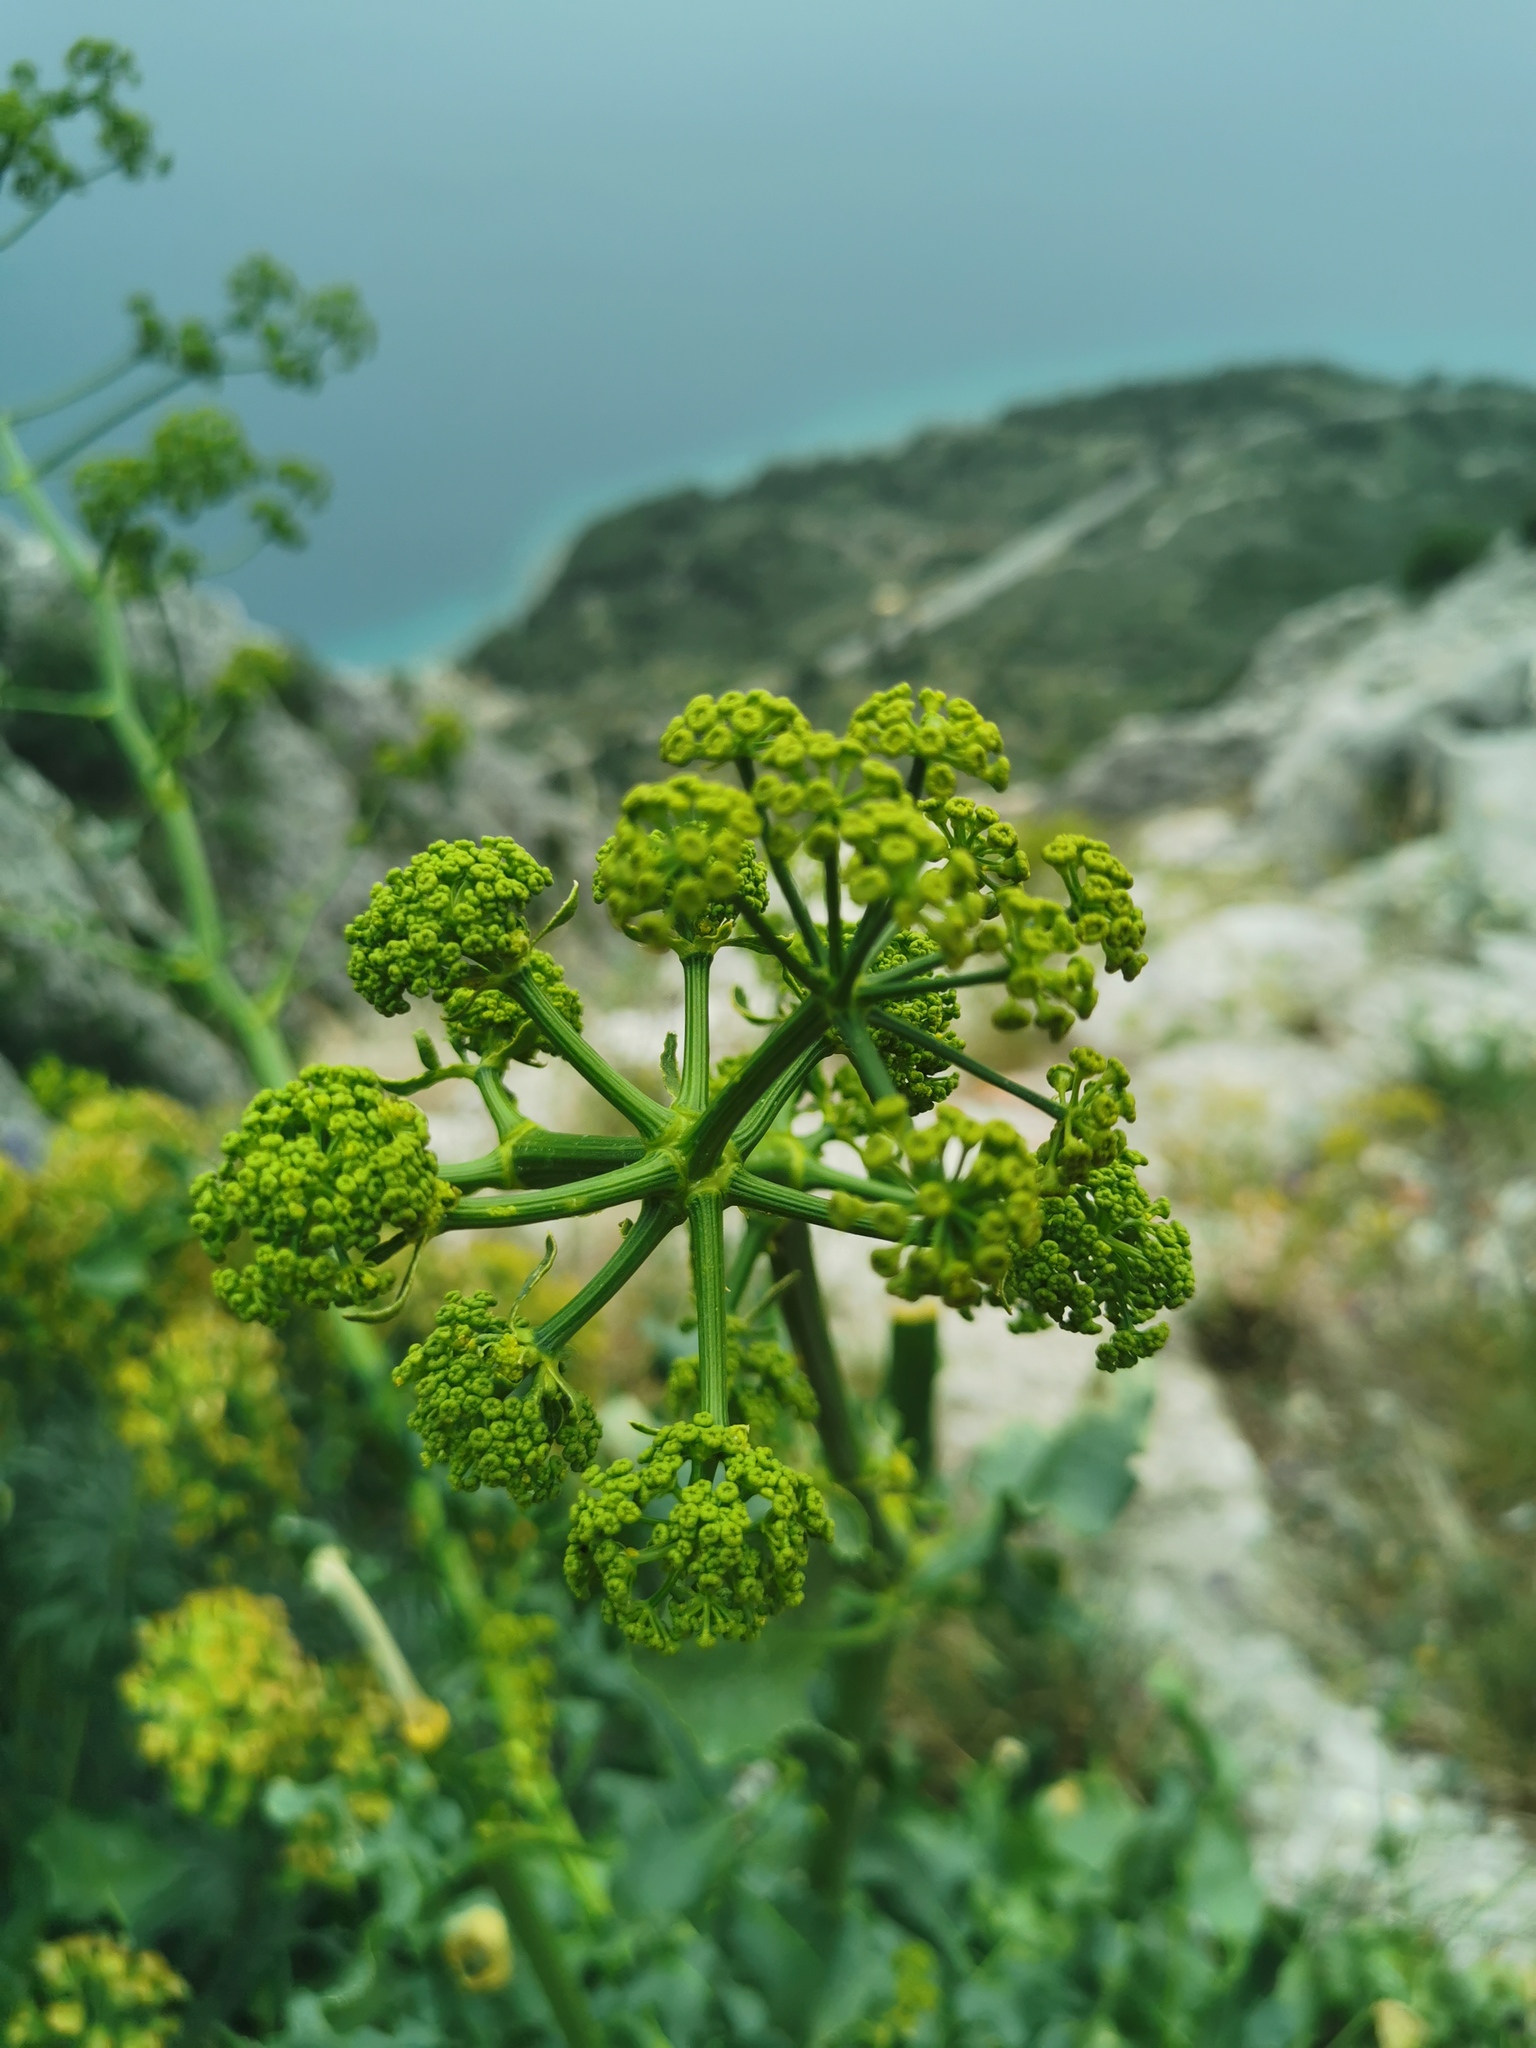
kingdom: Plantae
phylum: Tracheophyta
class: Magnoliopsida
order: Apiales
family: Apiaceae
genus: Opopanax
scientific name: Opopanax chironium
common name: Hercules-all-heal
